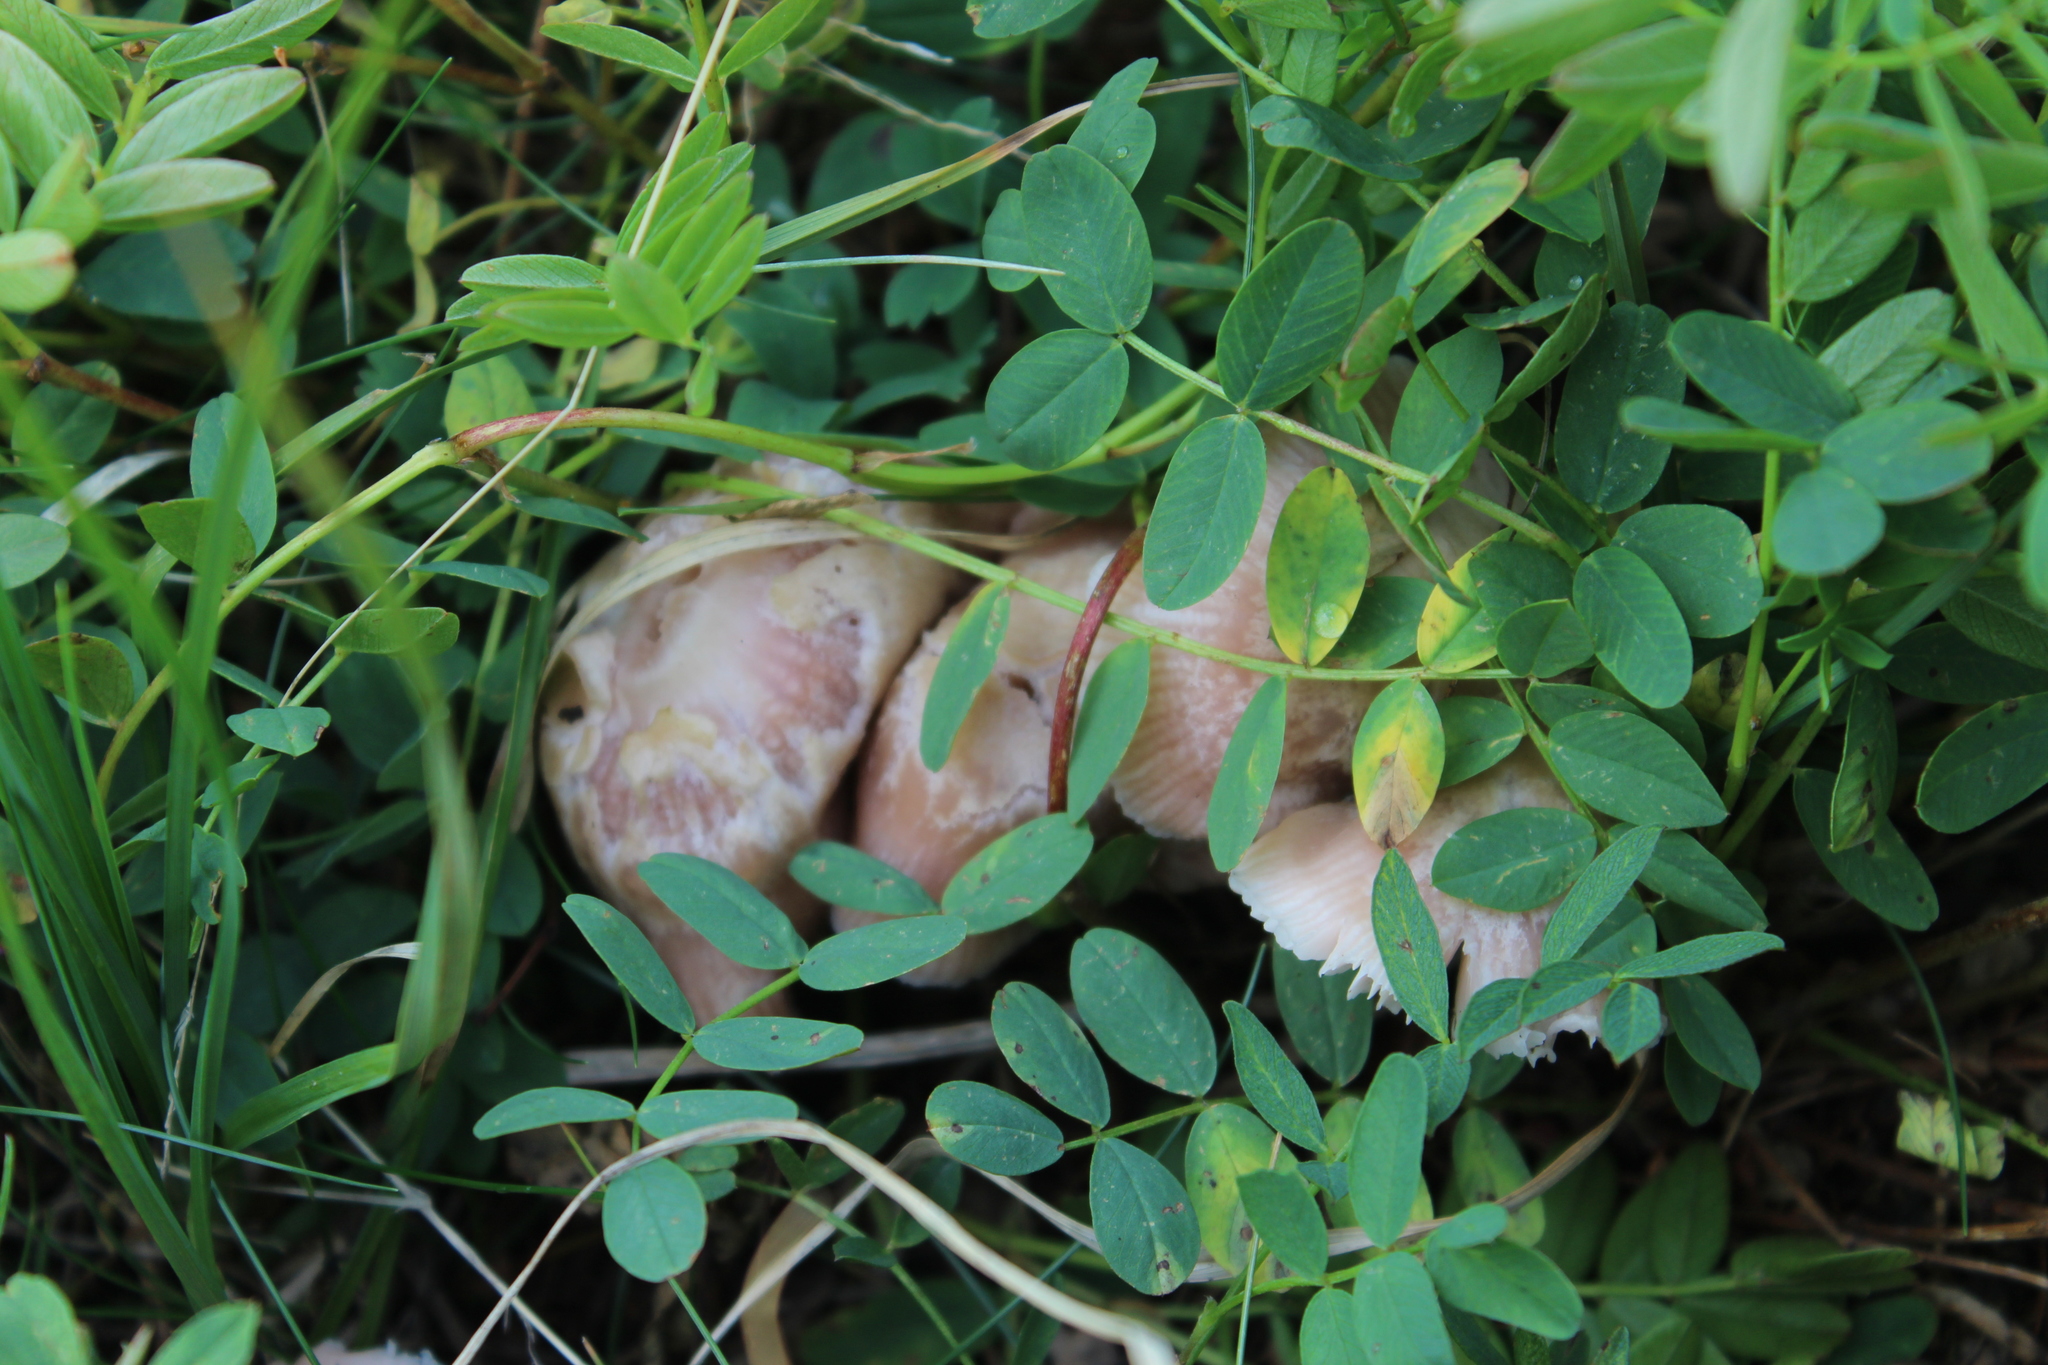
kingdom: Fungi
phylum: Basidiomycota
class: Agaricomycetes
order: Agaricales
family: Mycenaceae
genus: Mycena
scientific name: Mycena rosea
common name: Rosy bonnet
